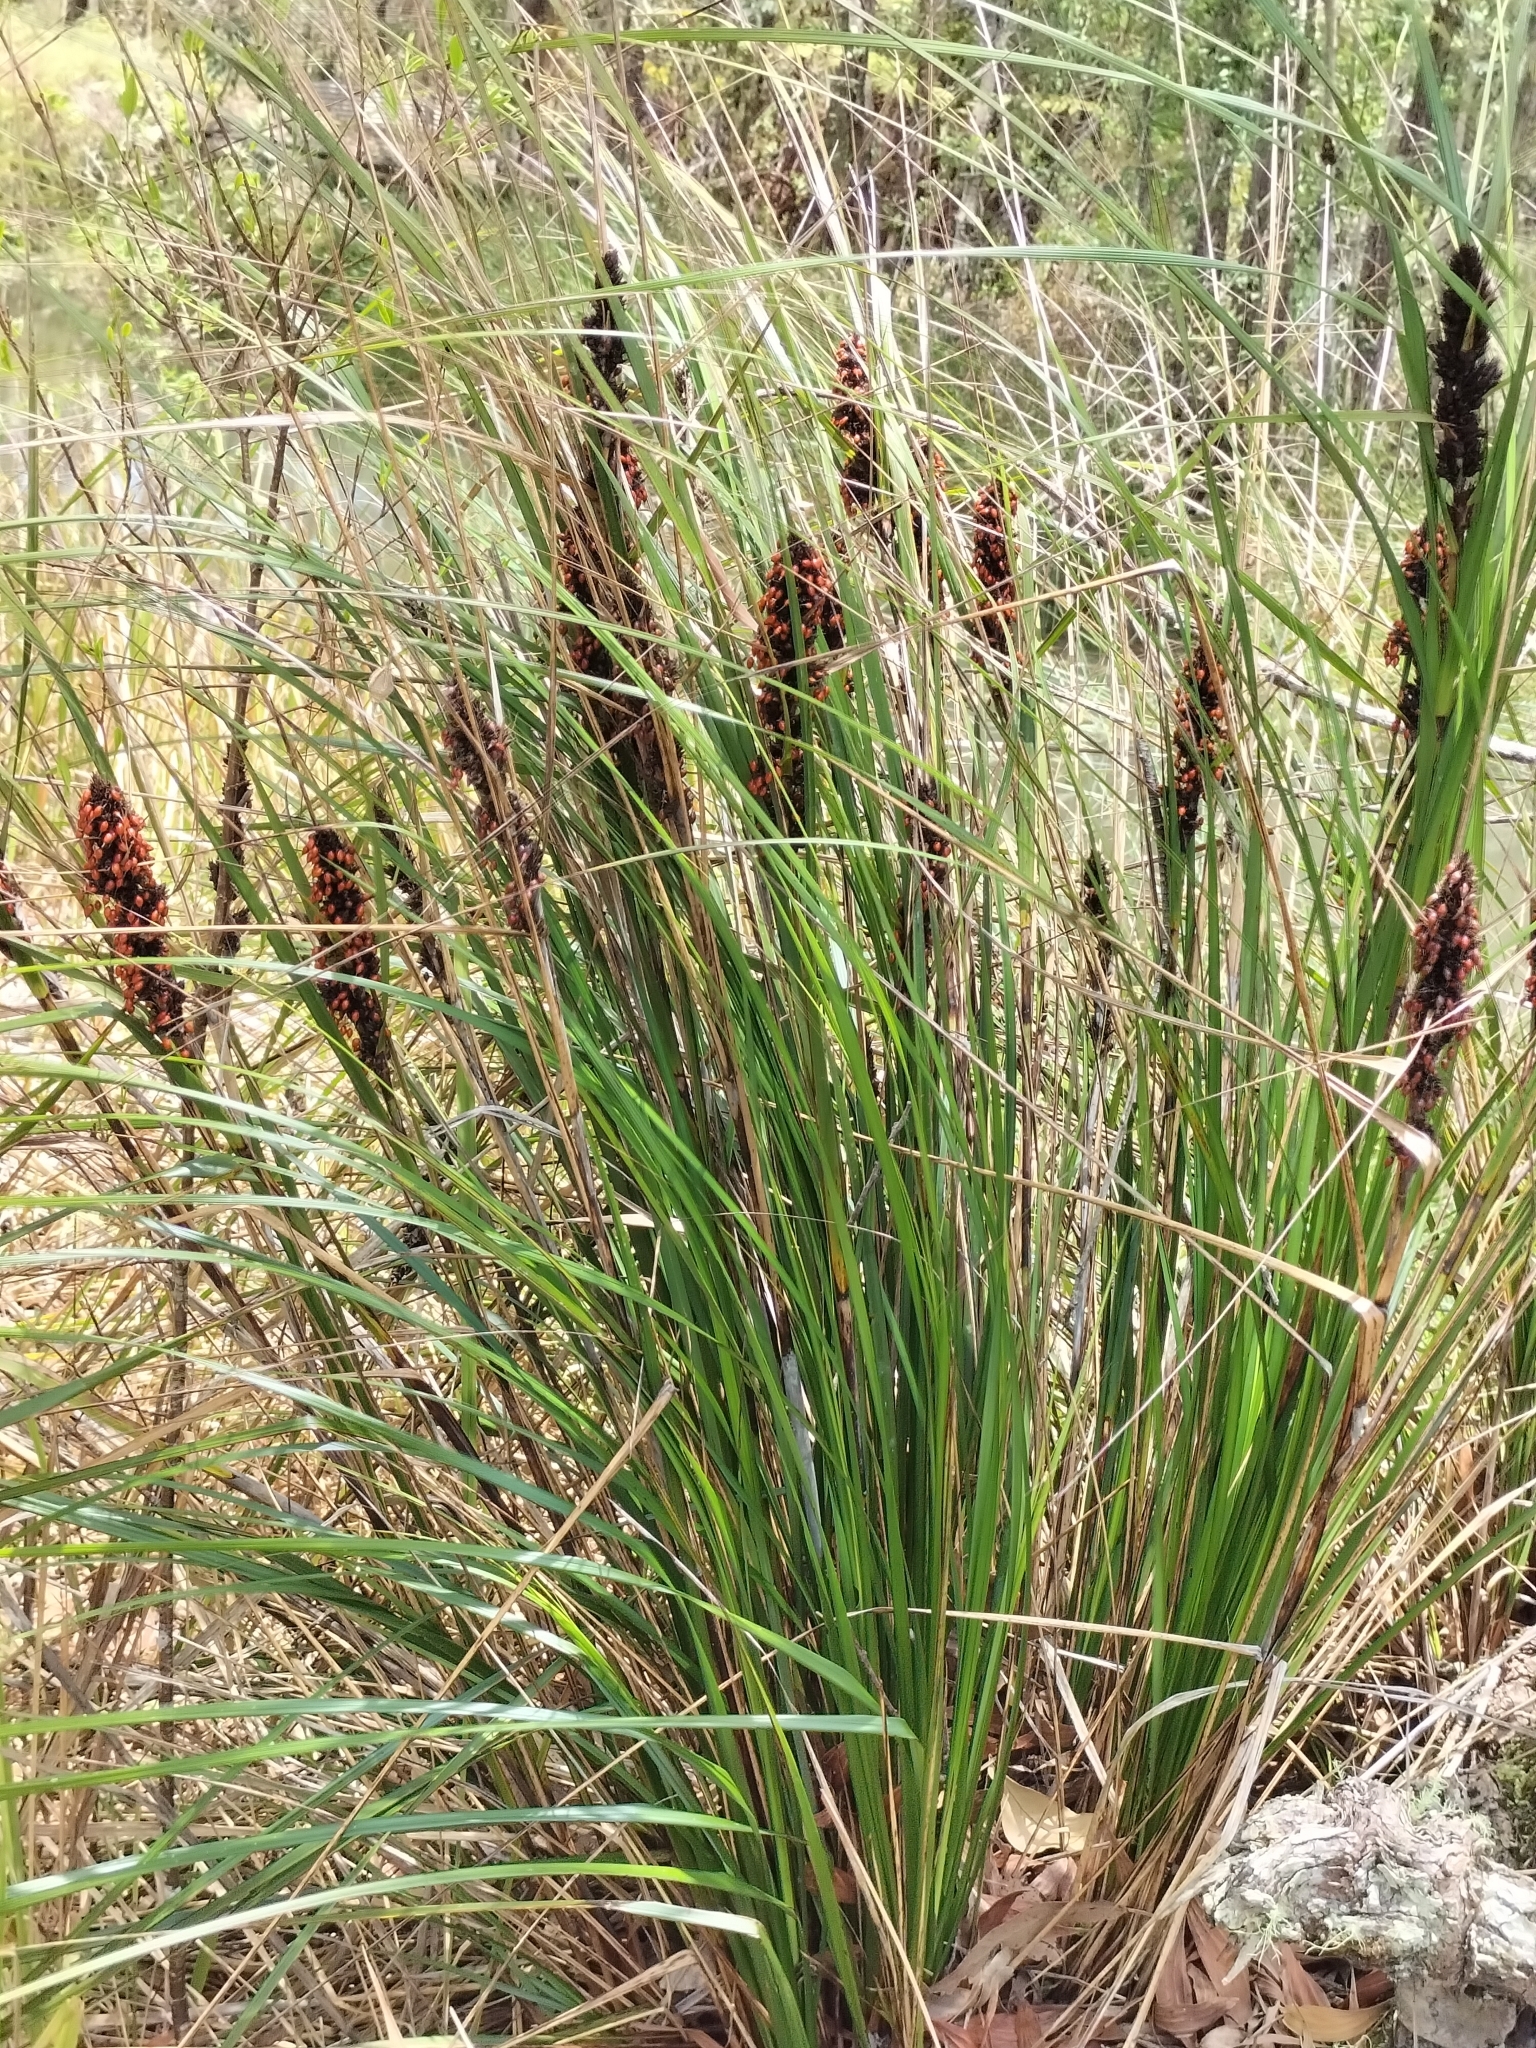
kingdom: Plantae
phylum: Tracheophyta
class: Liliopsida
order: Poales
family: Cyperaceae
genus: Gahnia
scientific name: Gahnia aspera
